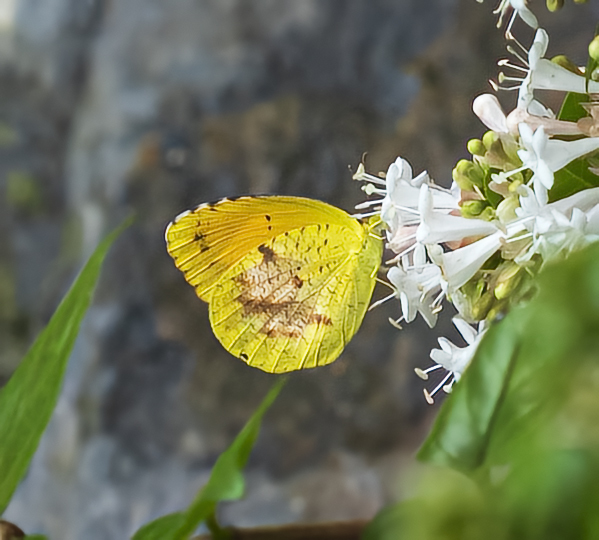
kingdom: Animalia
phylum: Arthropoda
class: Insecta
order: Lepidoptera
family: Pieridae
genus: Abaeis
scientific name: Abaeis nicippe
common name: Sleepy orange
